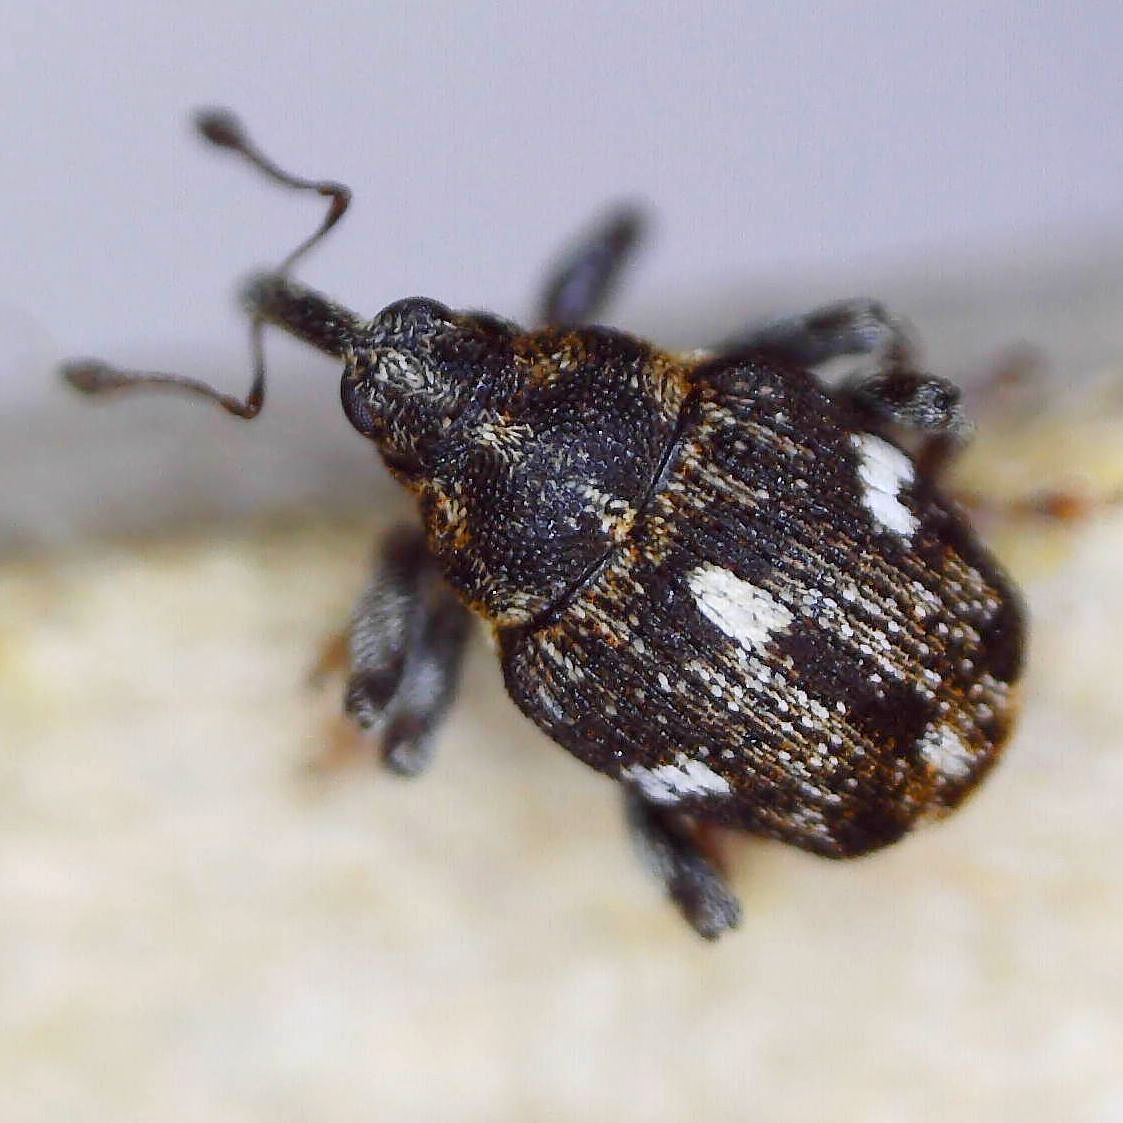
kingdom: Animalia
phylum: Arthropoda
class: Insecta
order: Coleoptera
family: Curculionidae
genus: Mogulones
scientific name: Mogulones asperifoliarum
